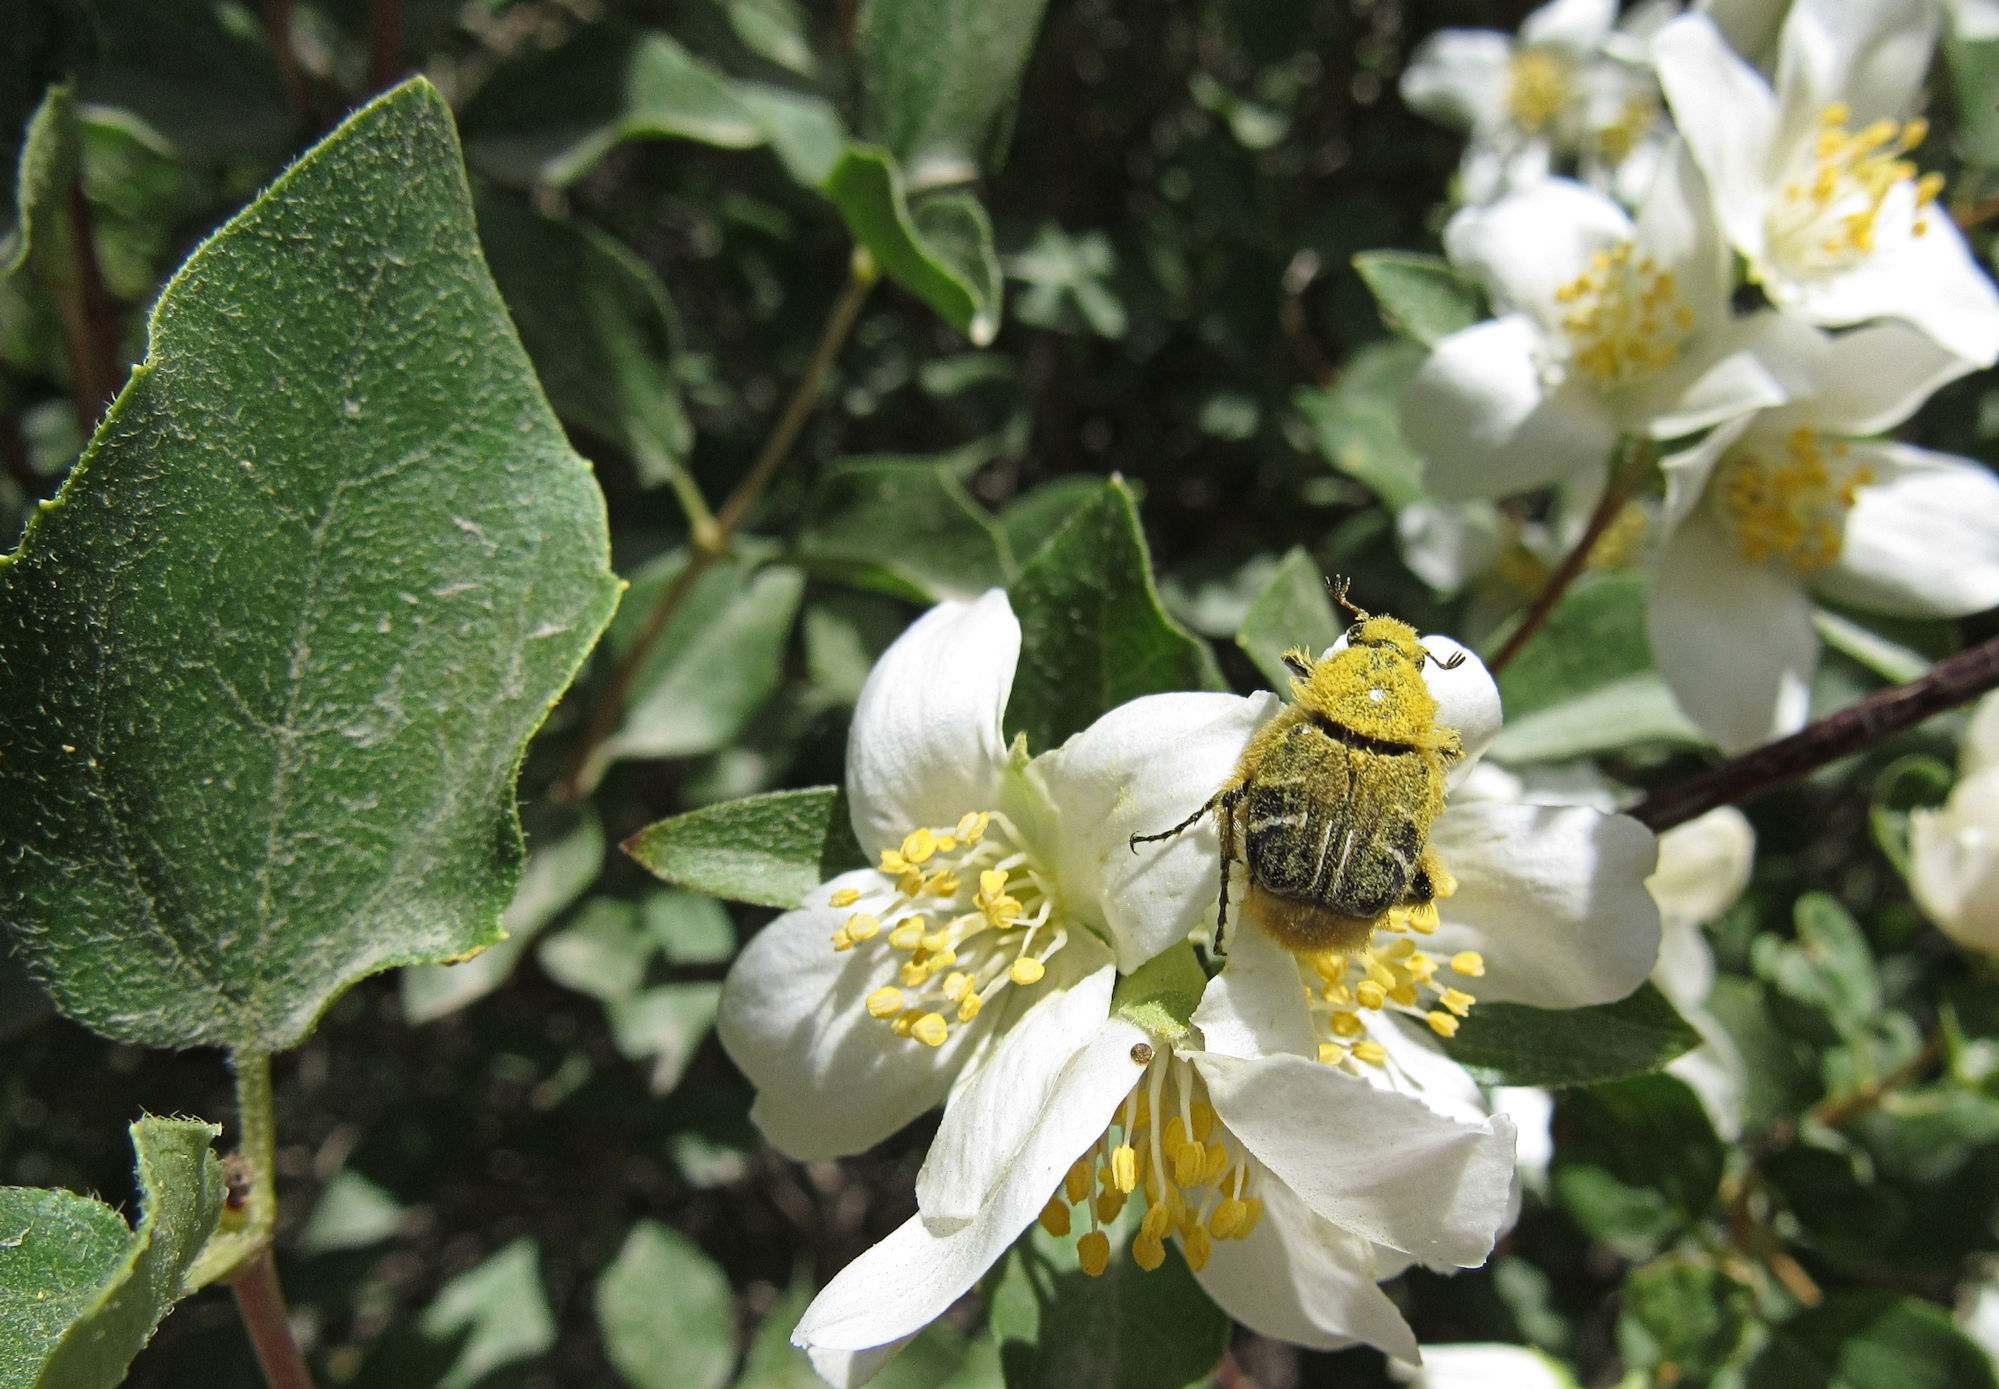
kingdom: Animalia
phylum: Arthropoda
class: Insecta
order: Coleoptera
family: Scarabaeidae
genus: Trichiotinus
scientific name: Trichiotinus assimilis
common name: Bee-mimic beetle
